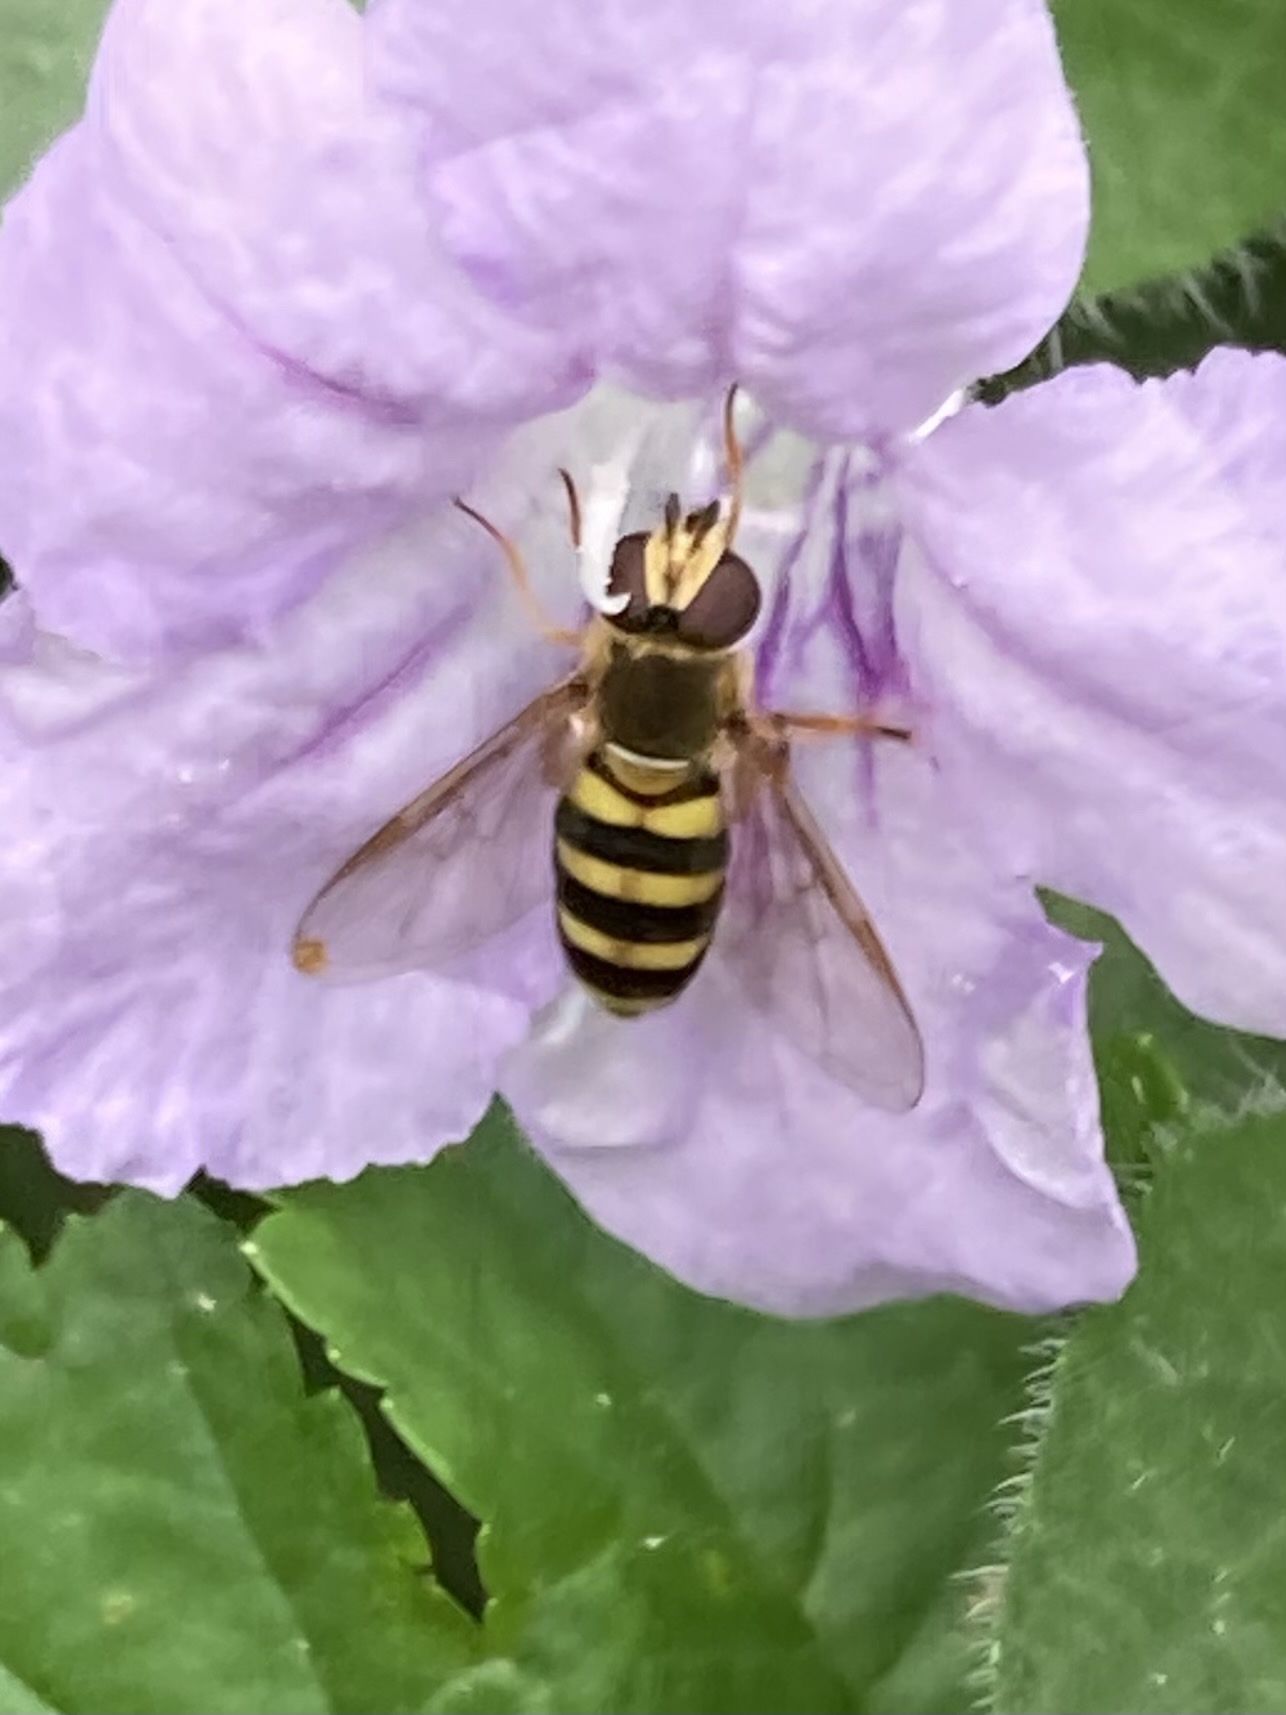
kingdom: Animalia
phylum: Arthropoda
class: Insecta
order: Diptera
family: Syrphidae
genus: Eupeodes
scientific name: Eupeodes
